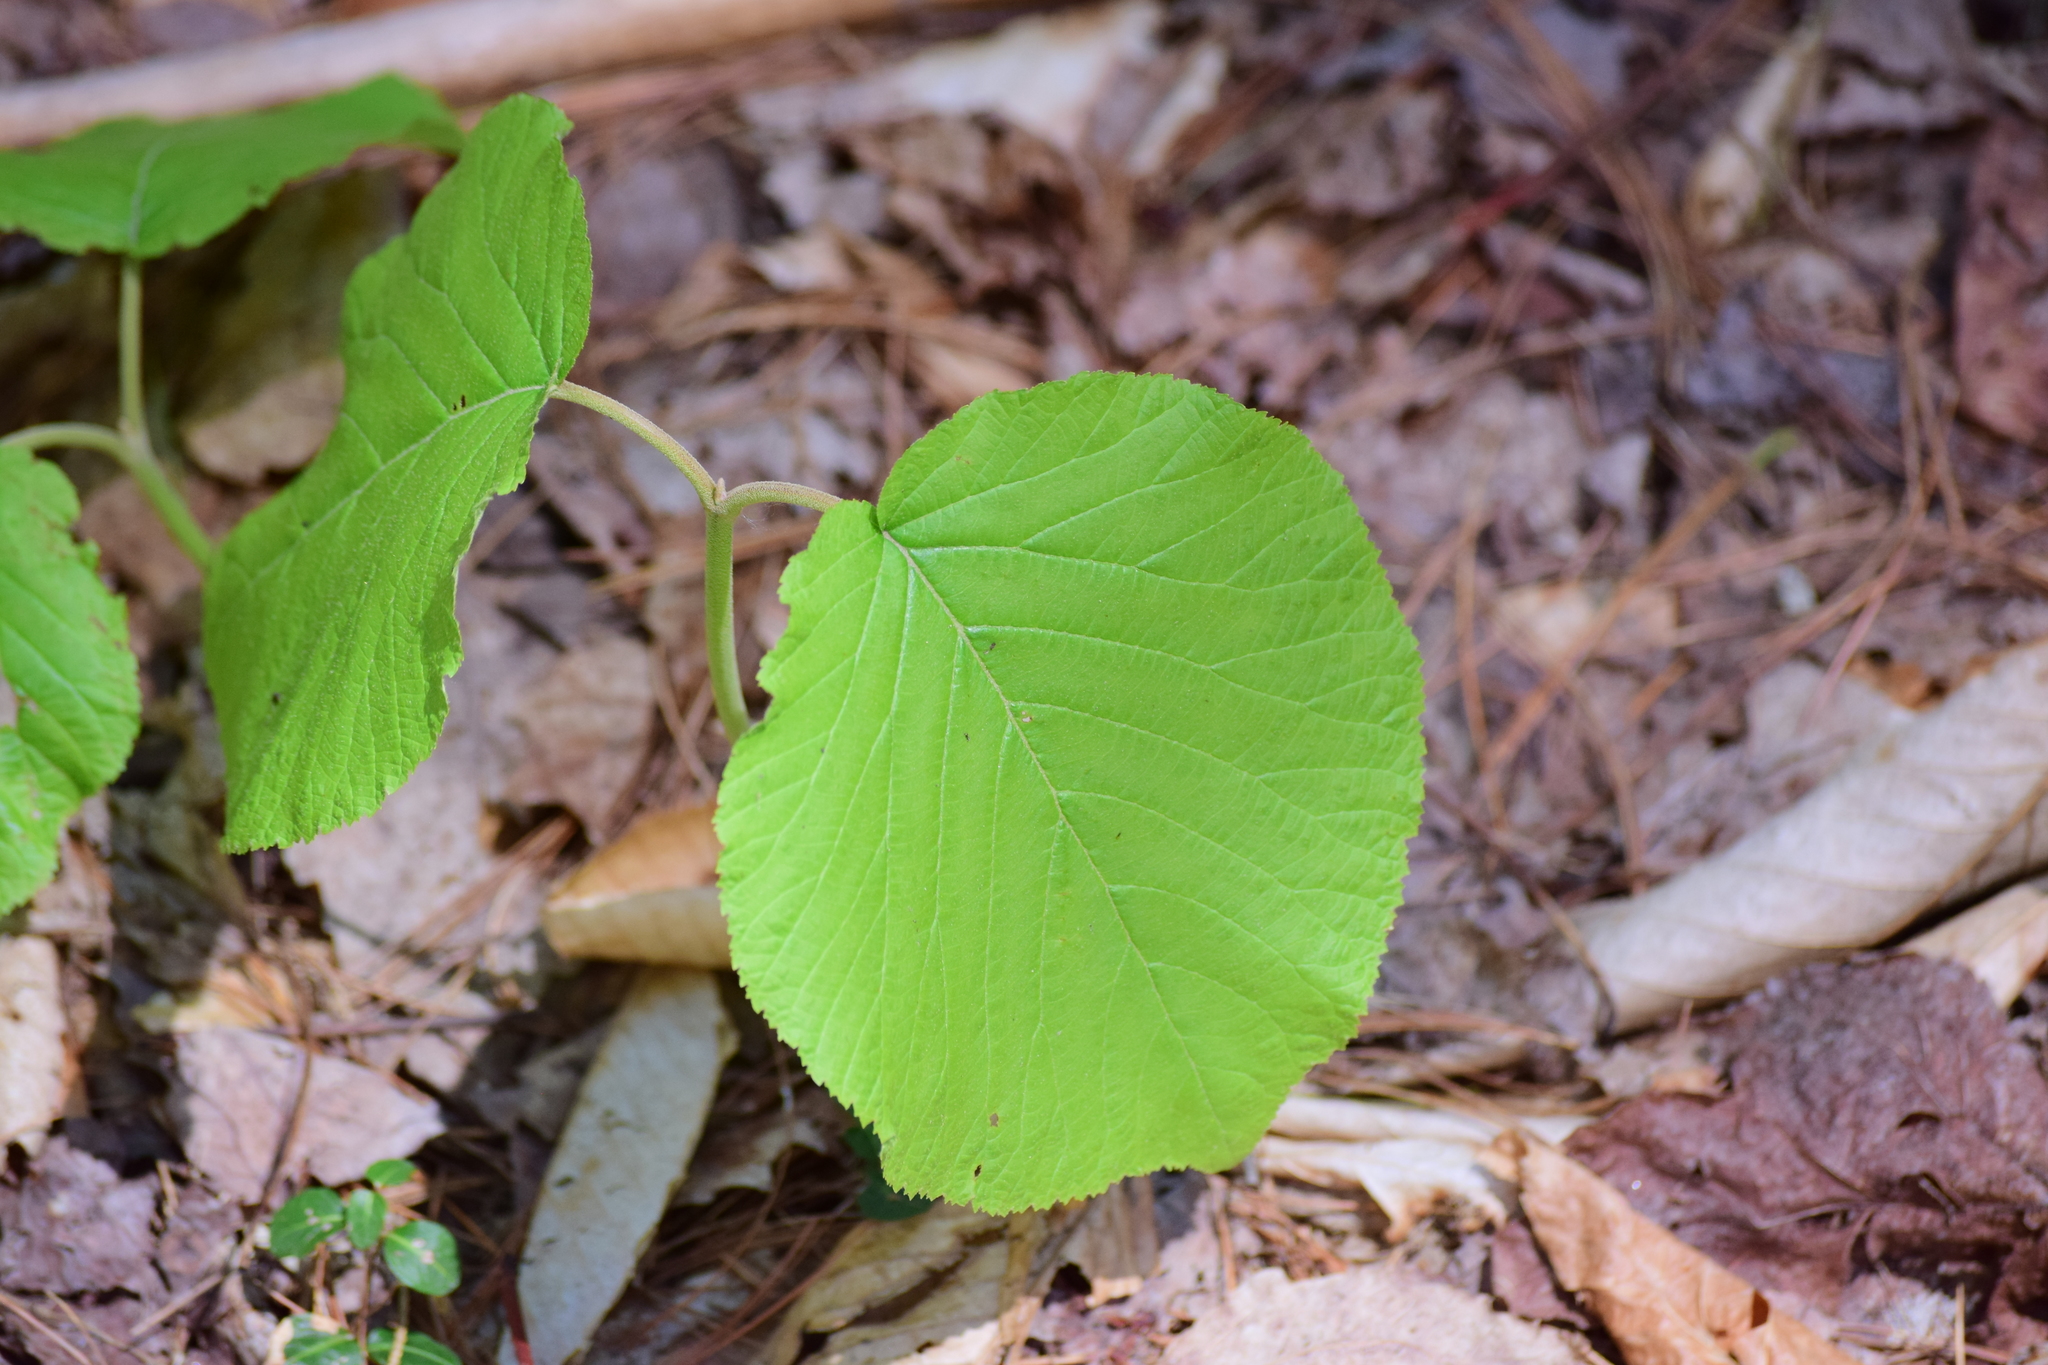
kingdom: Plantae
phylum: Tracheophyta
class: Magnoliopsida
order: Dipsacales
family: Viburnaceae
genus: Viburnum
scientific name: Viburnum lantanoides
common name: Hobblebush
